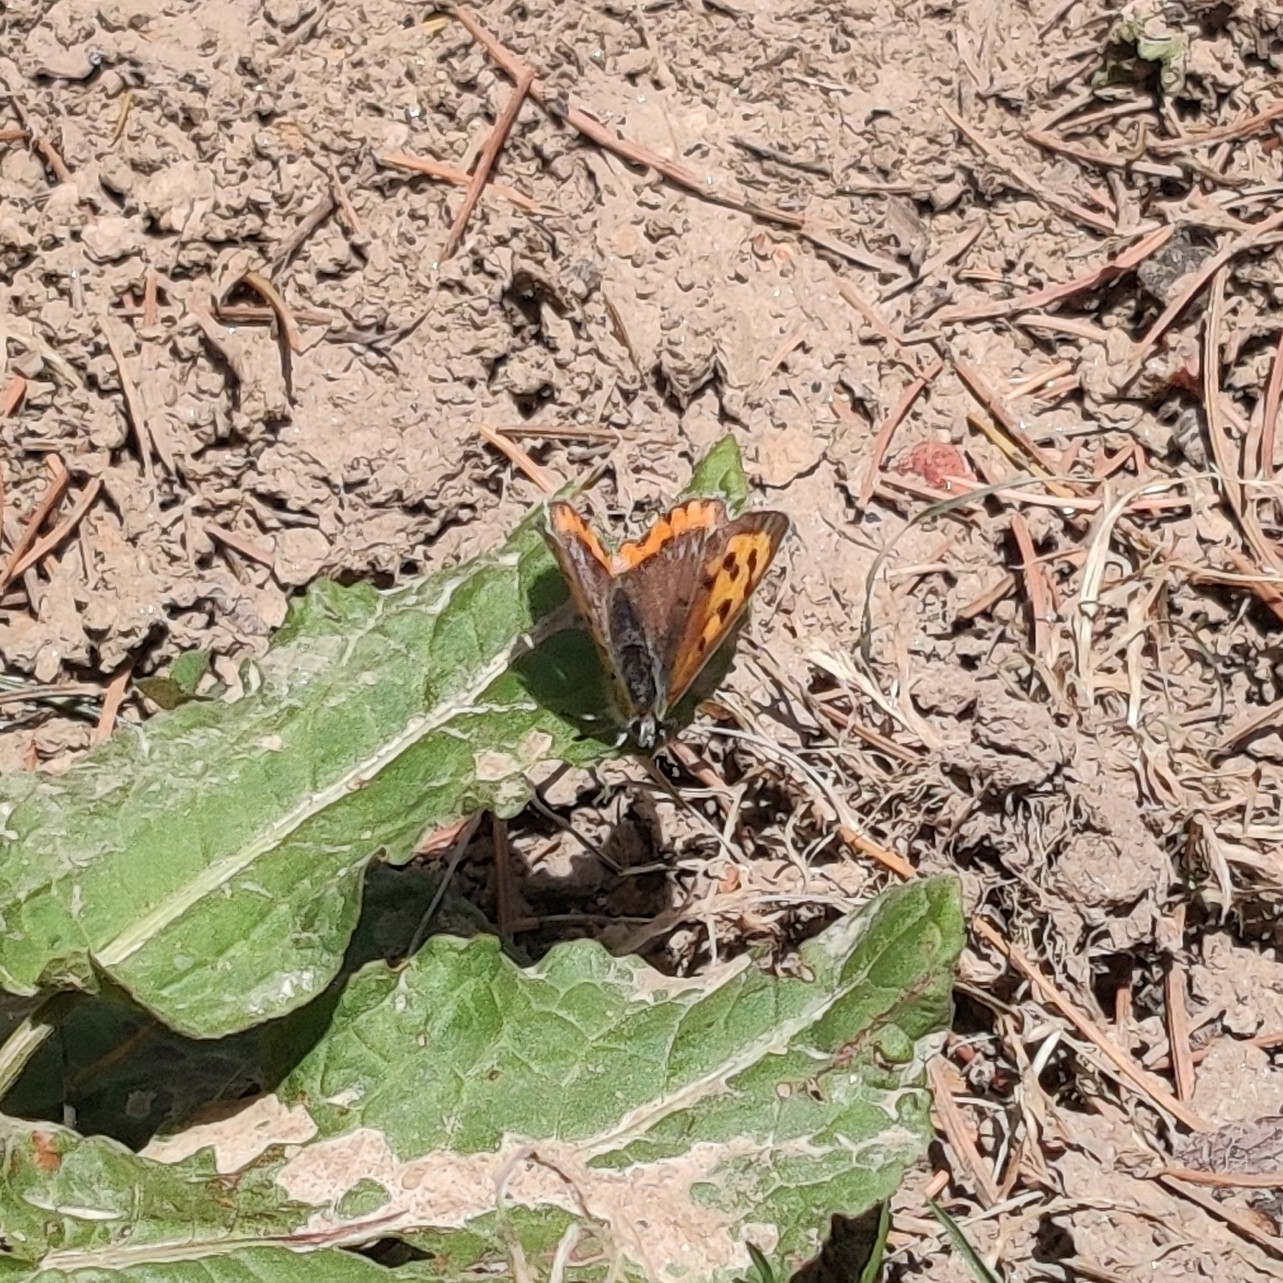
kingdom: Animalia
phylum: Arthropoda
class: Insecta
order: Lepidoptera
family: Lycaenidae
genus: Lycaena
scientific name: Lycaena phlaeas
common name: Small copper
